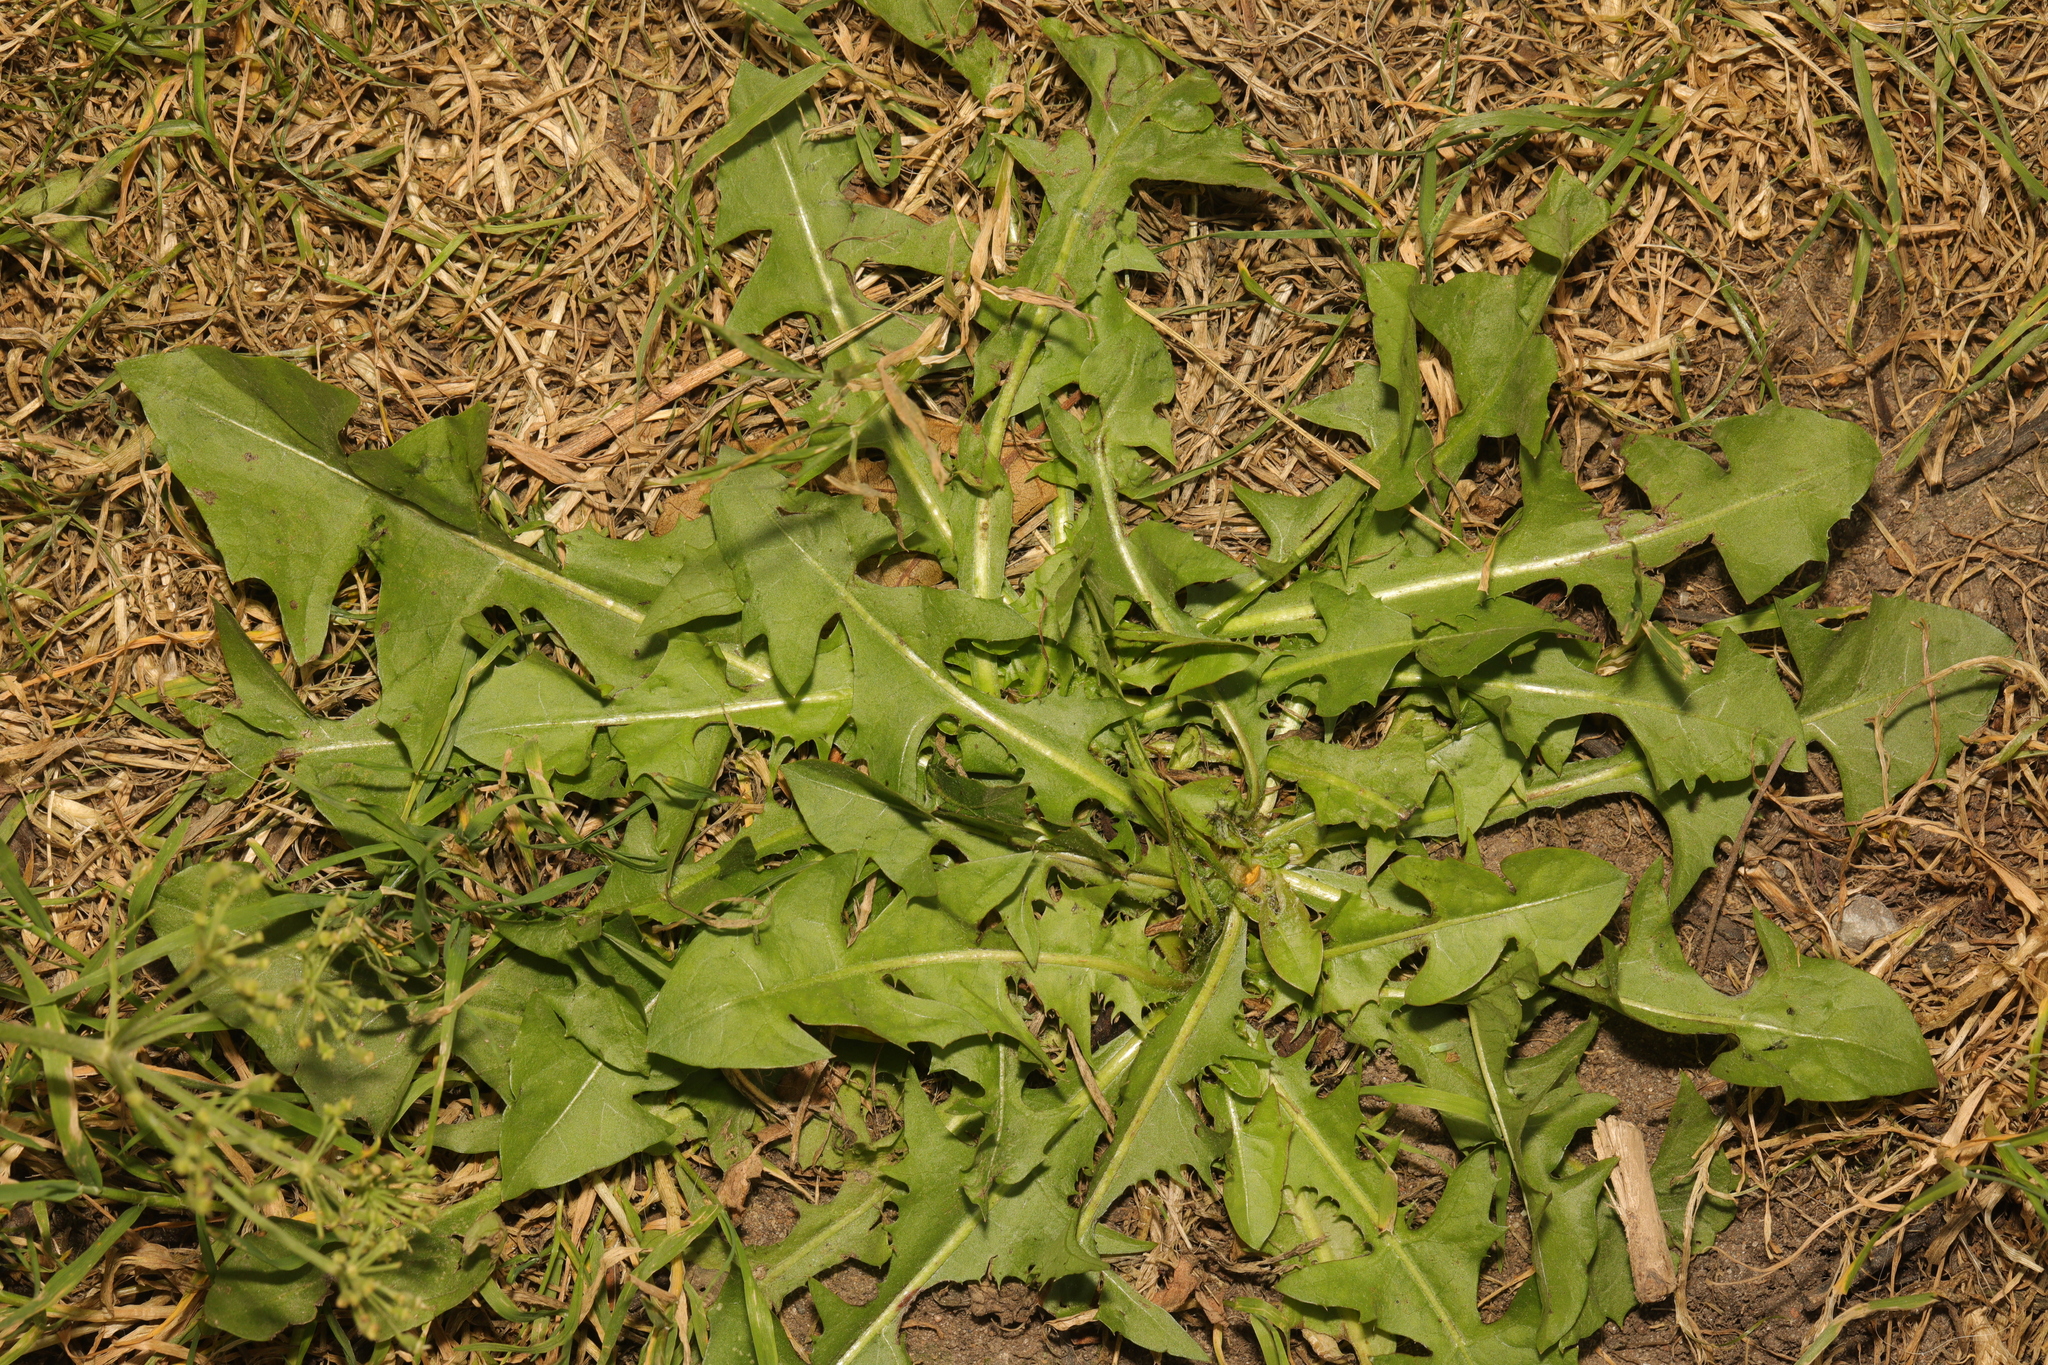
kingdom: Plantae
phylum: Tracheophyta
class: Magnoliopsida
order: Asterales
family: Asteraceae
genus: Taraxacum
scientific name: Taraxacum officinale
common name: Common dandelion
